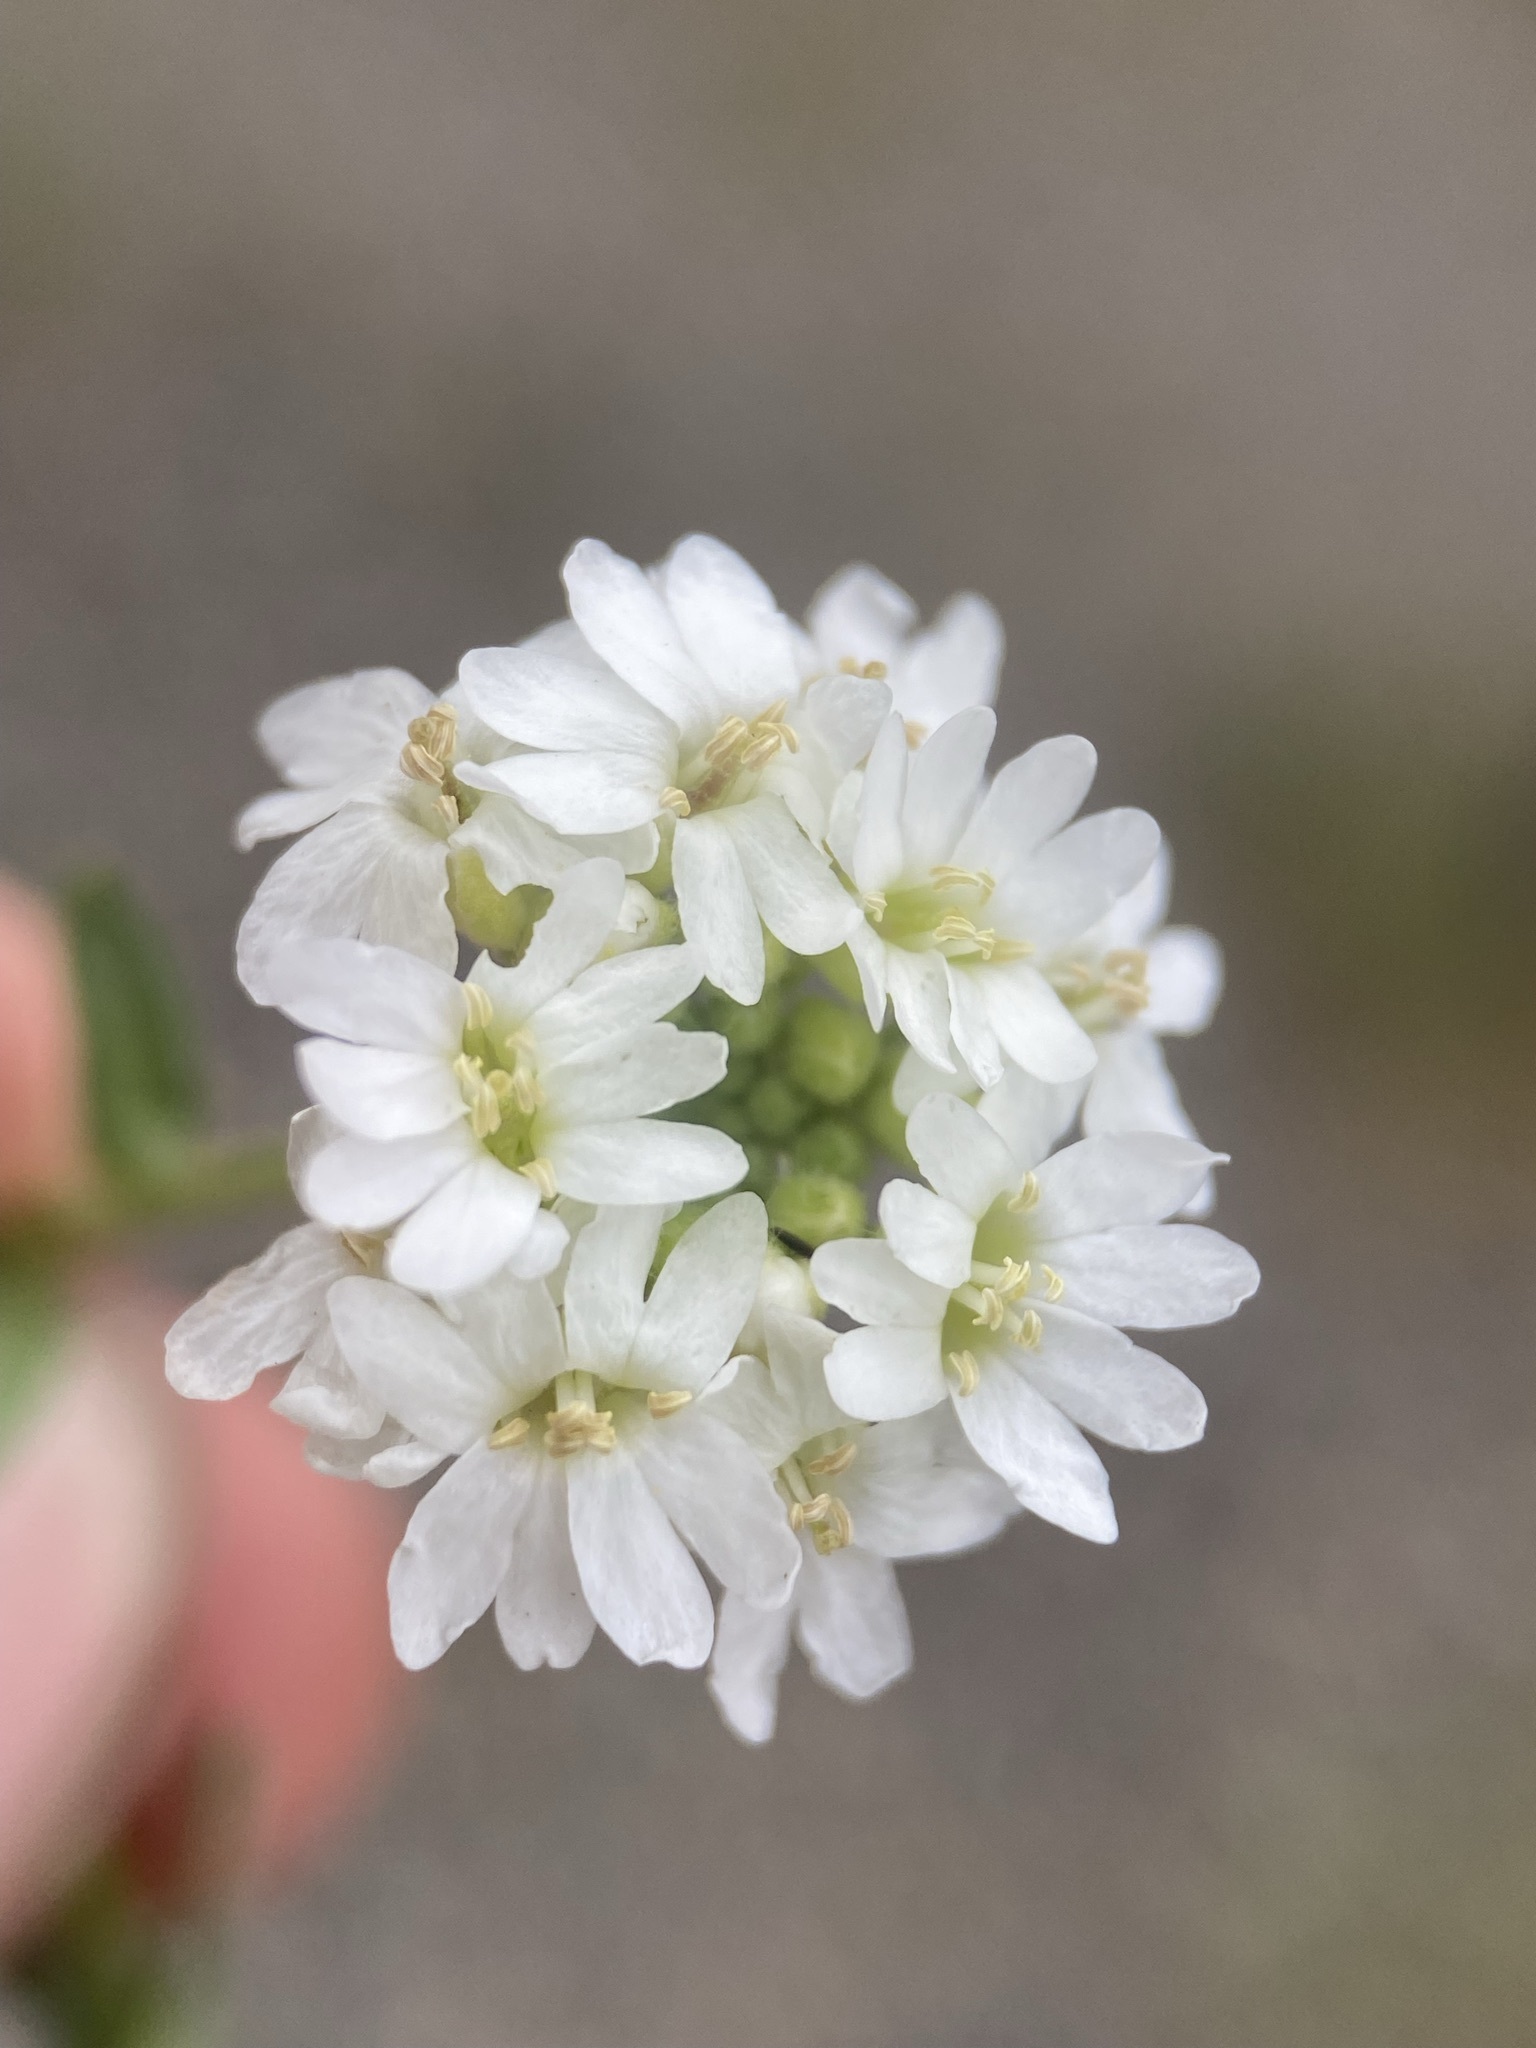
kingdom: Plantae
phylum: Tracheophyta
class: Magnoliopsida
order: Brassicales
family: Brassicaceae
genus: Berteroa
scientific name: Berteroa incana
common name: Hoary alison
